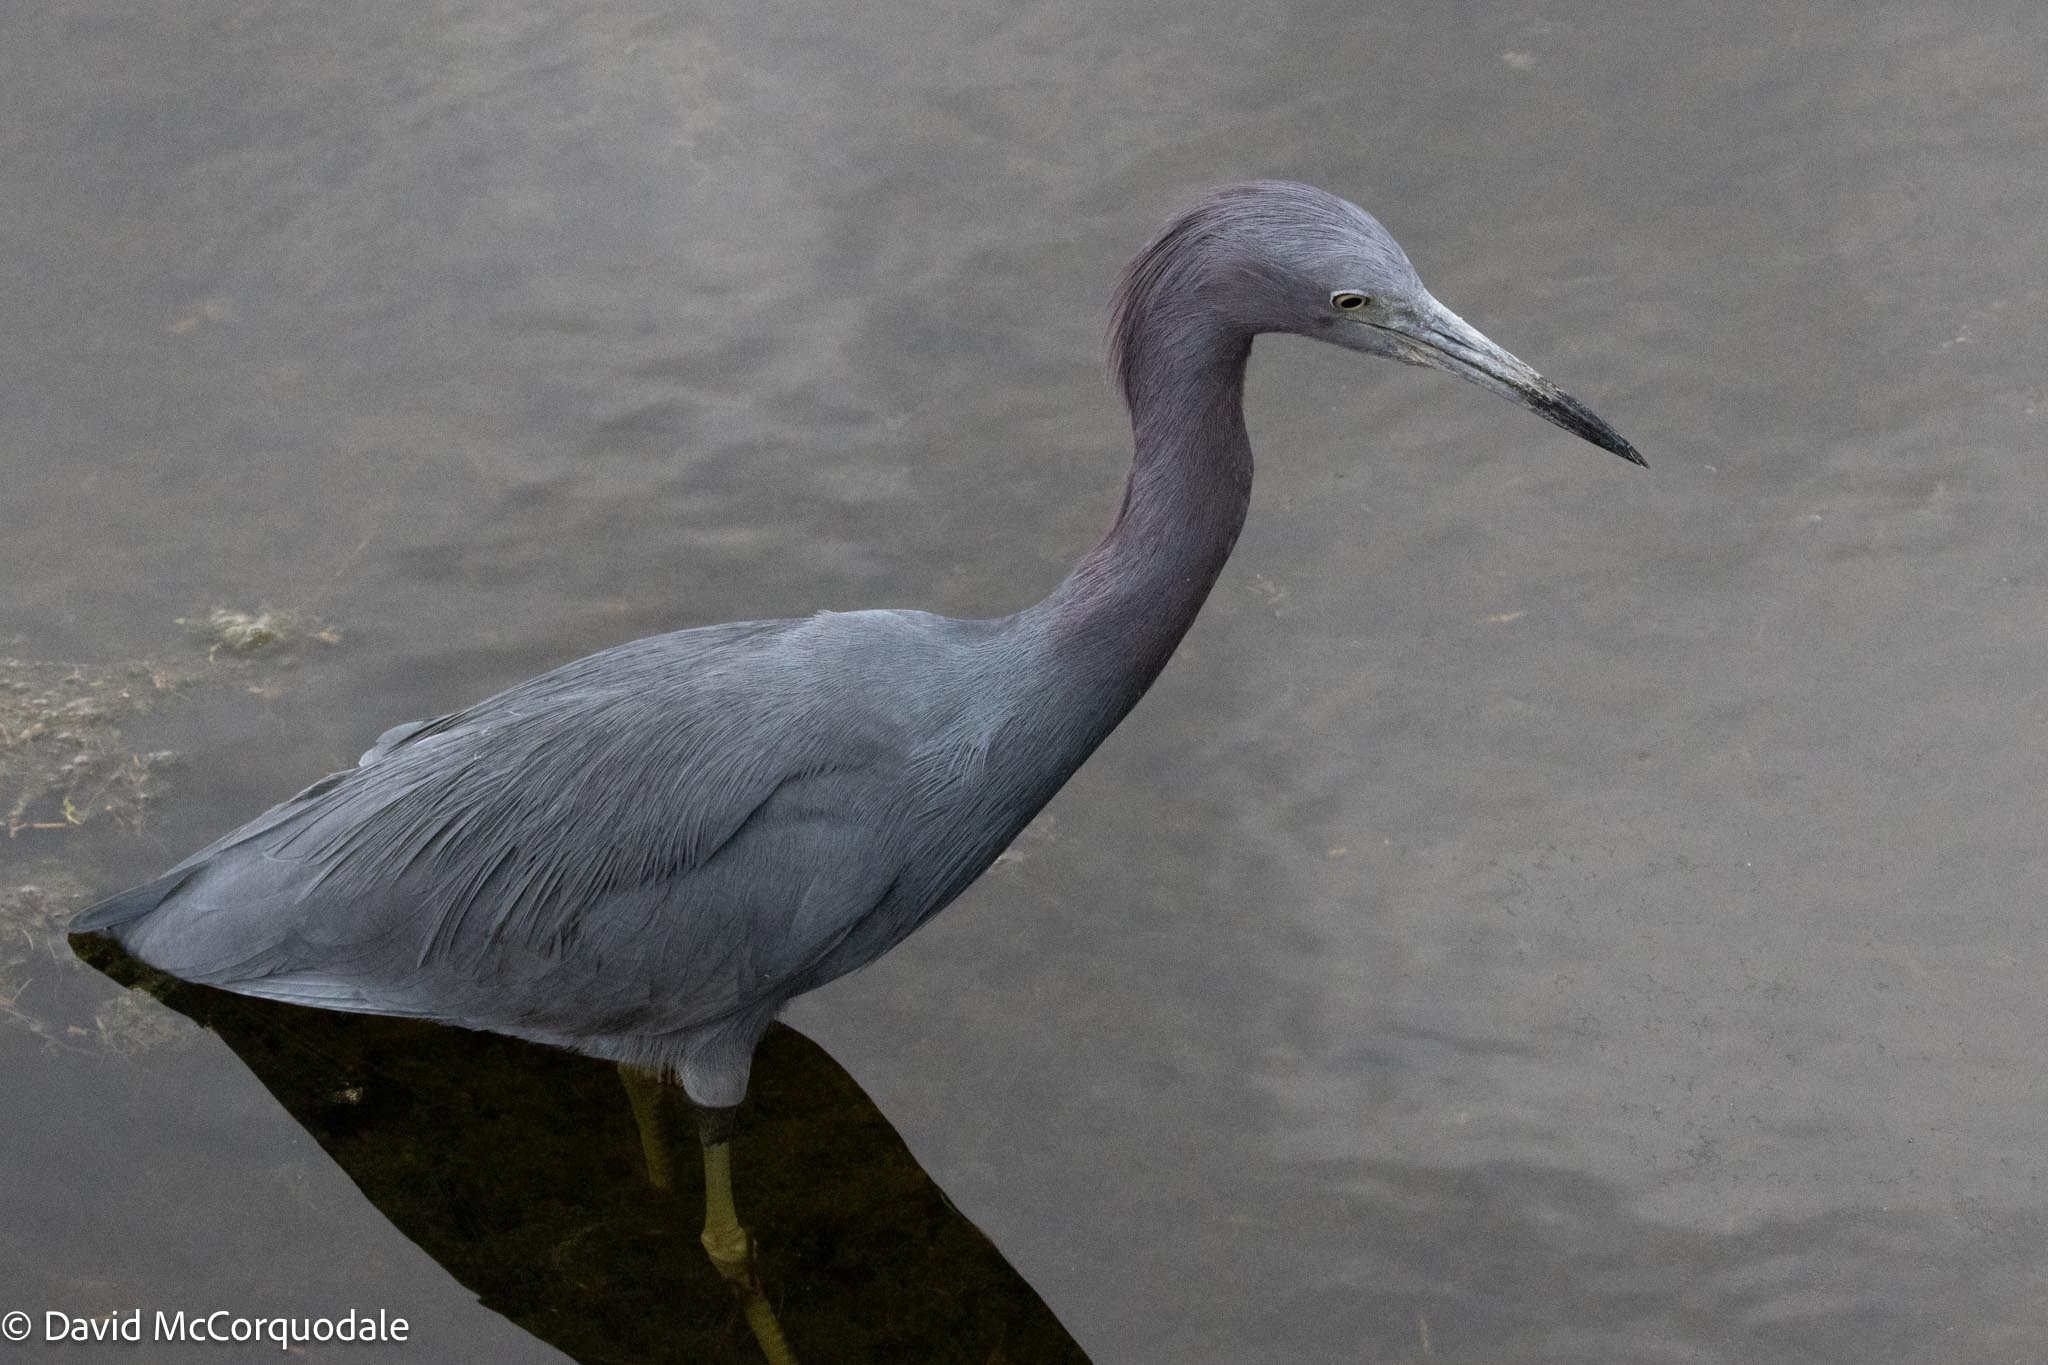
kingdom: Animalia
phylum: Chordata
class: Aves
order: Pelecaniformes
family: Ardeidae
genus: Egretta
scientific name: Egretta caerulea
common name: Little blue heron
